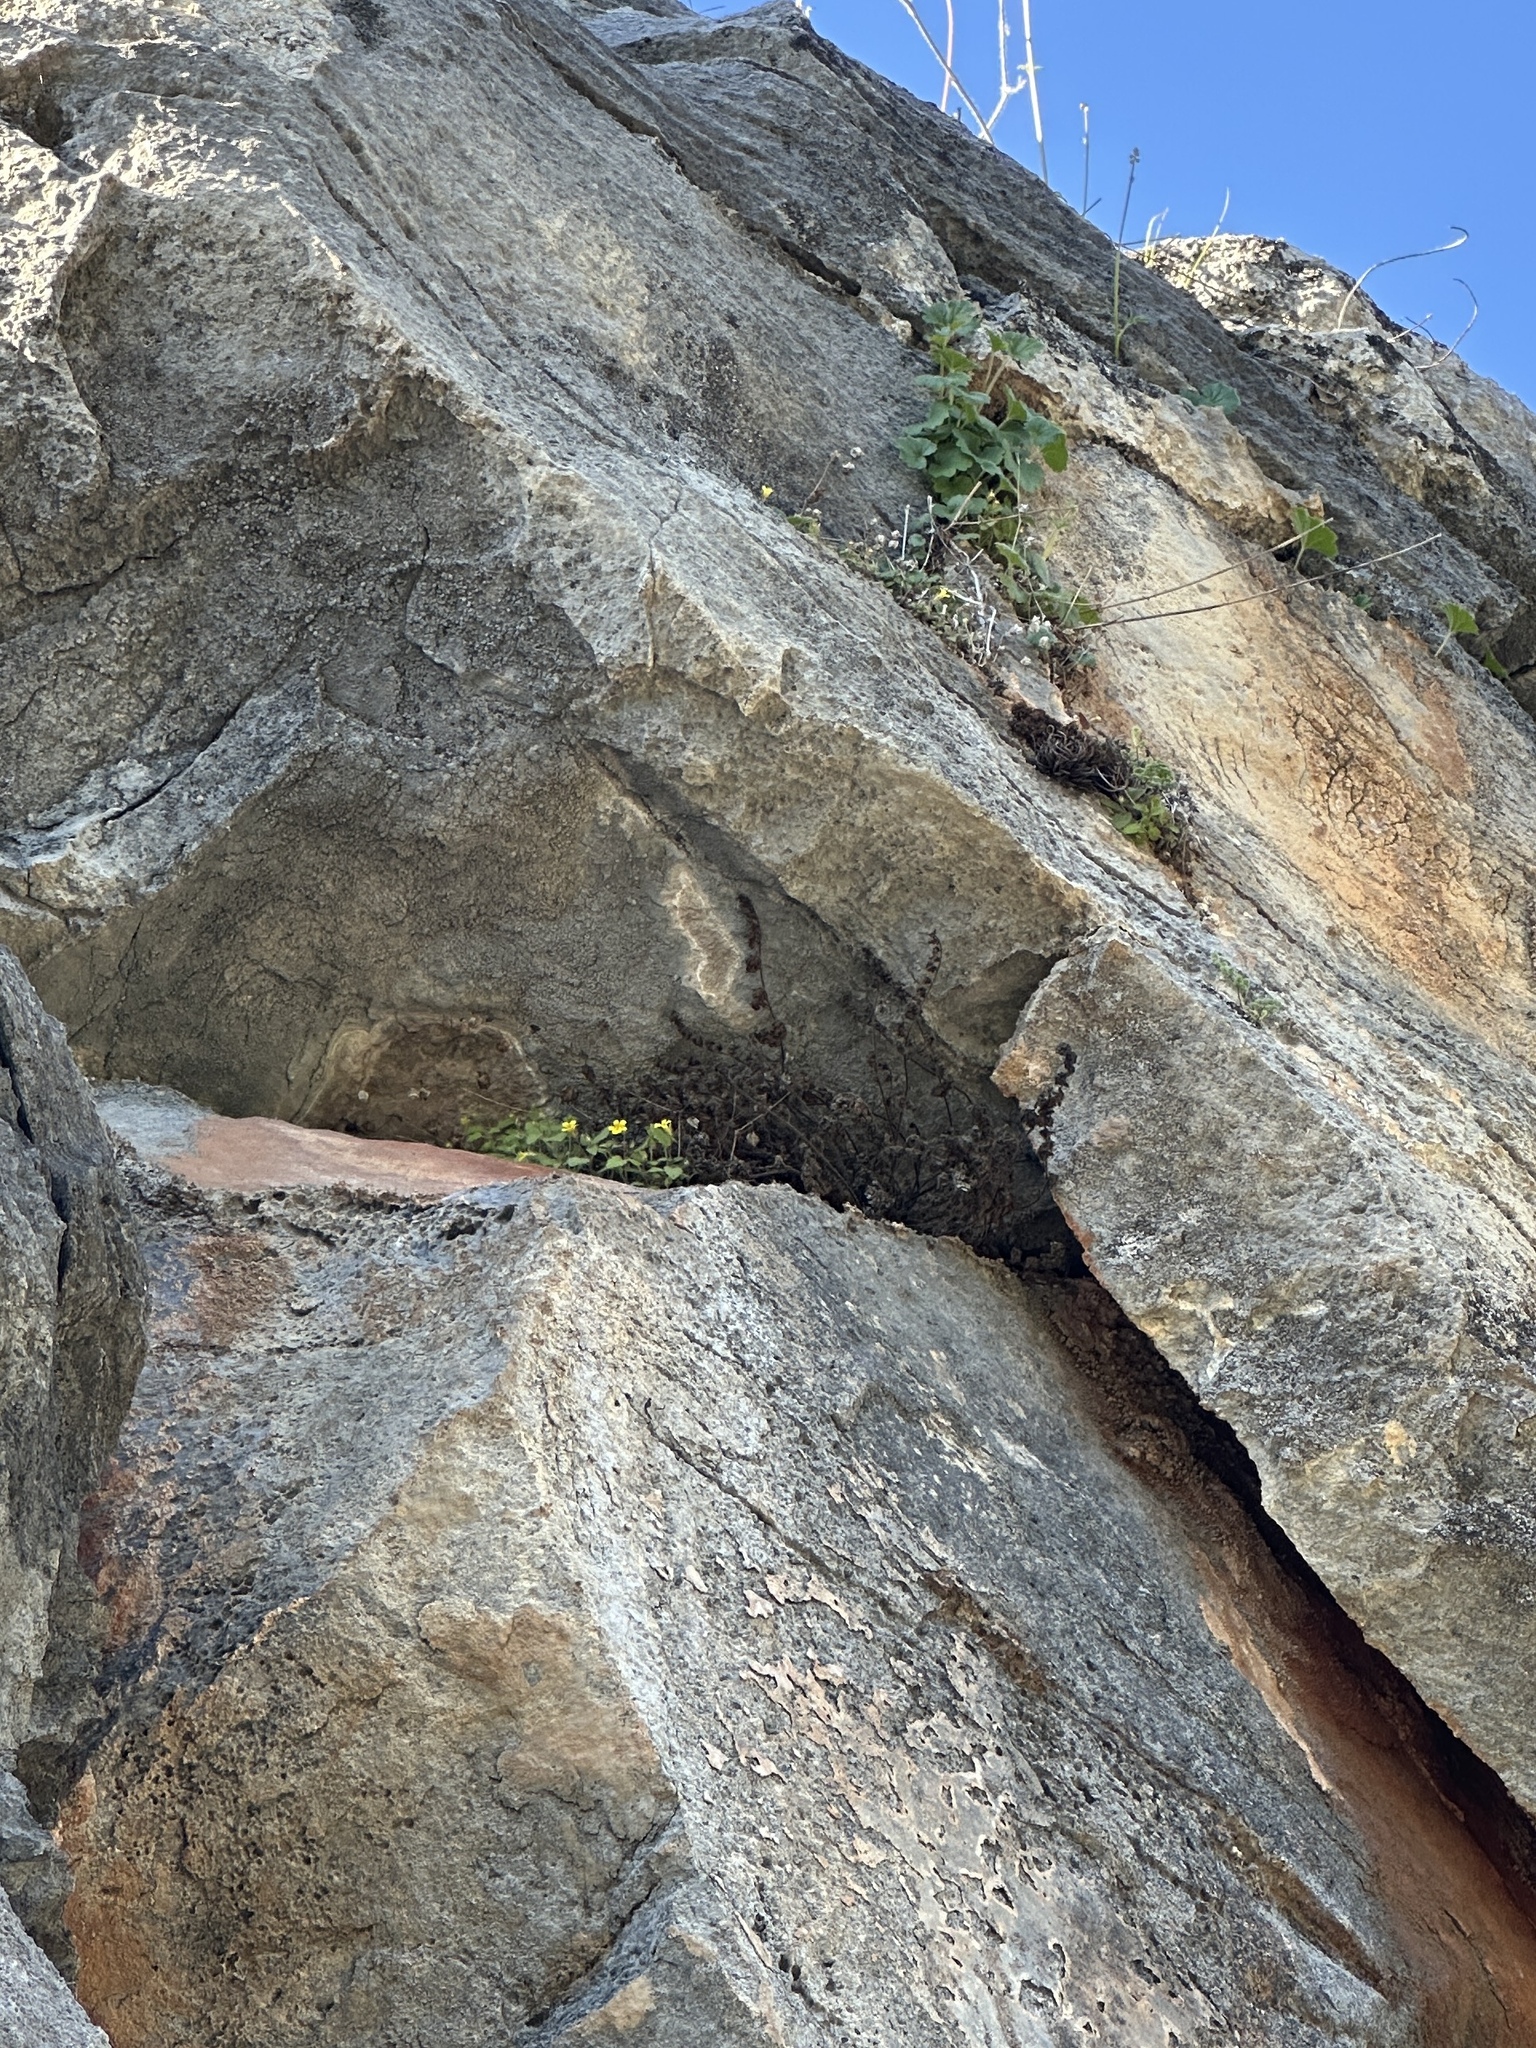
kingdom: Plantae
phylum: Tracheophyta
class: Magnoliopsida
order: Lamiales
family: Phrymaceae
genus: Erythranthe
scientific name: Erythranthe marmorata
